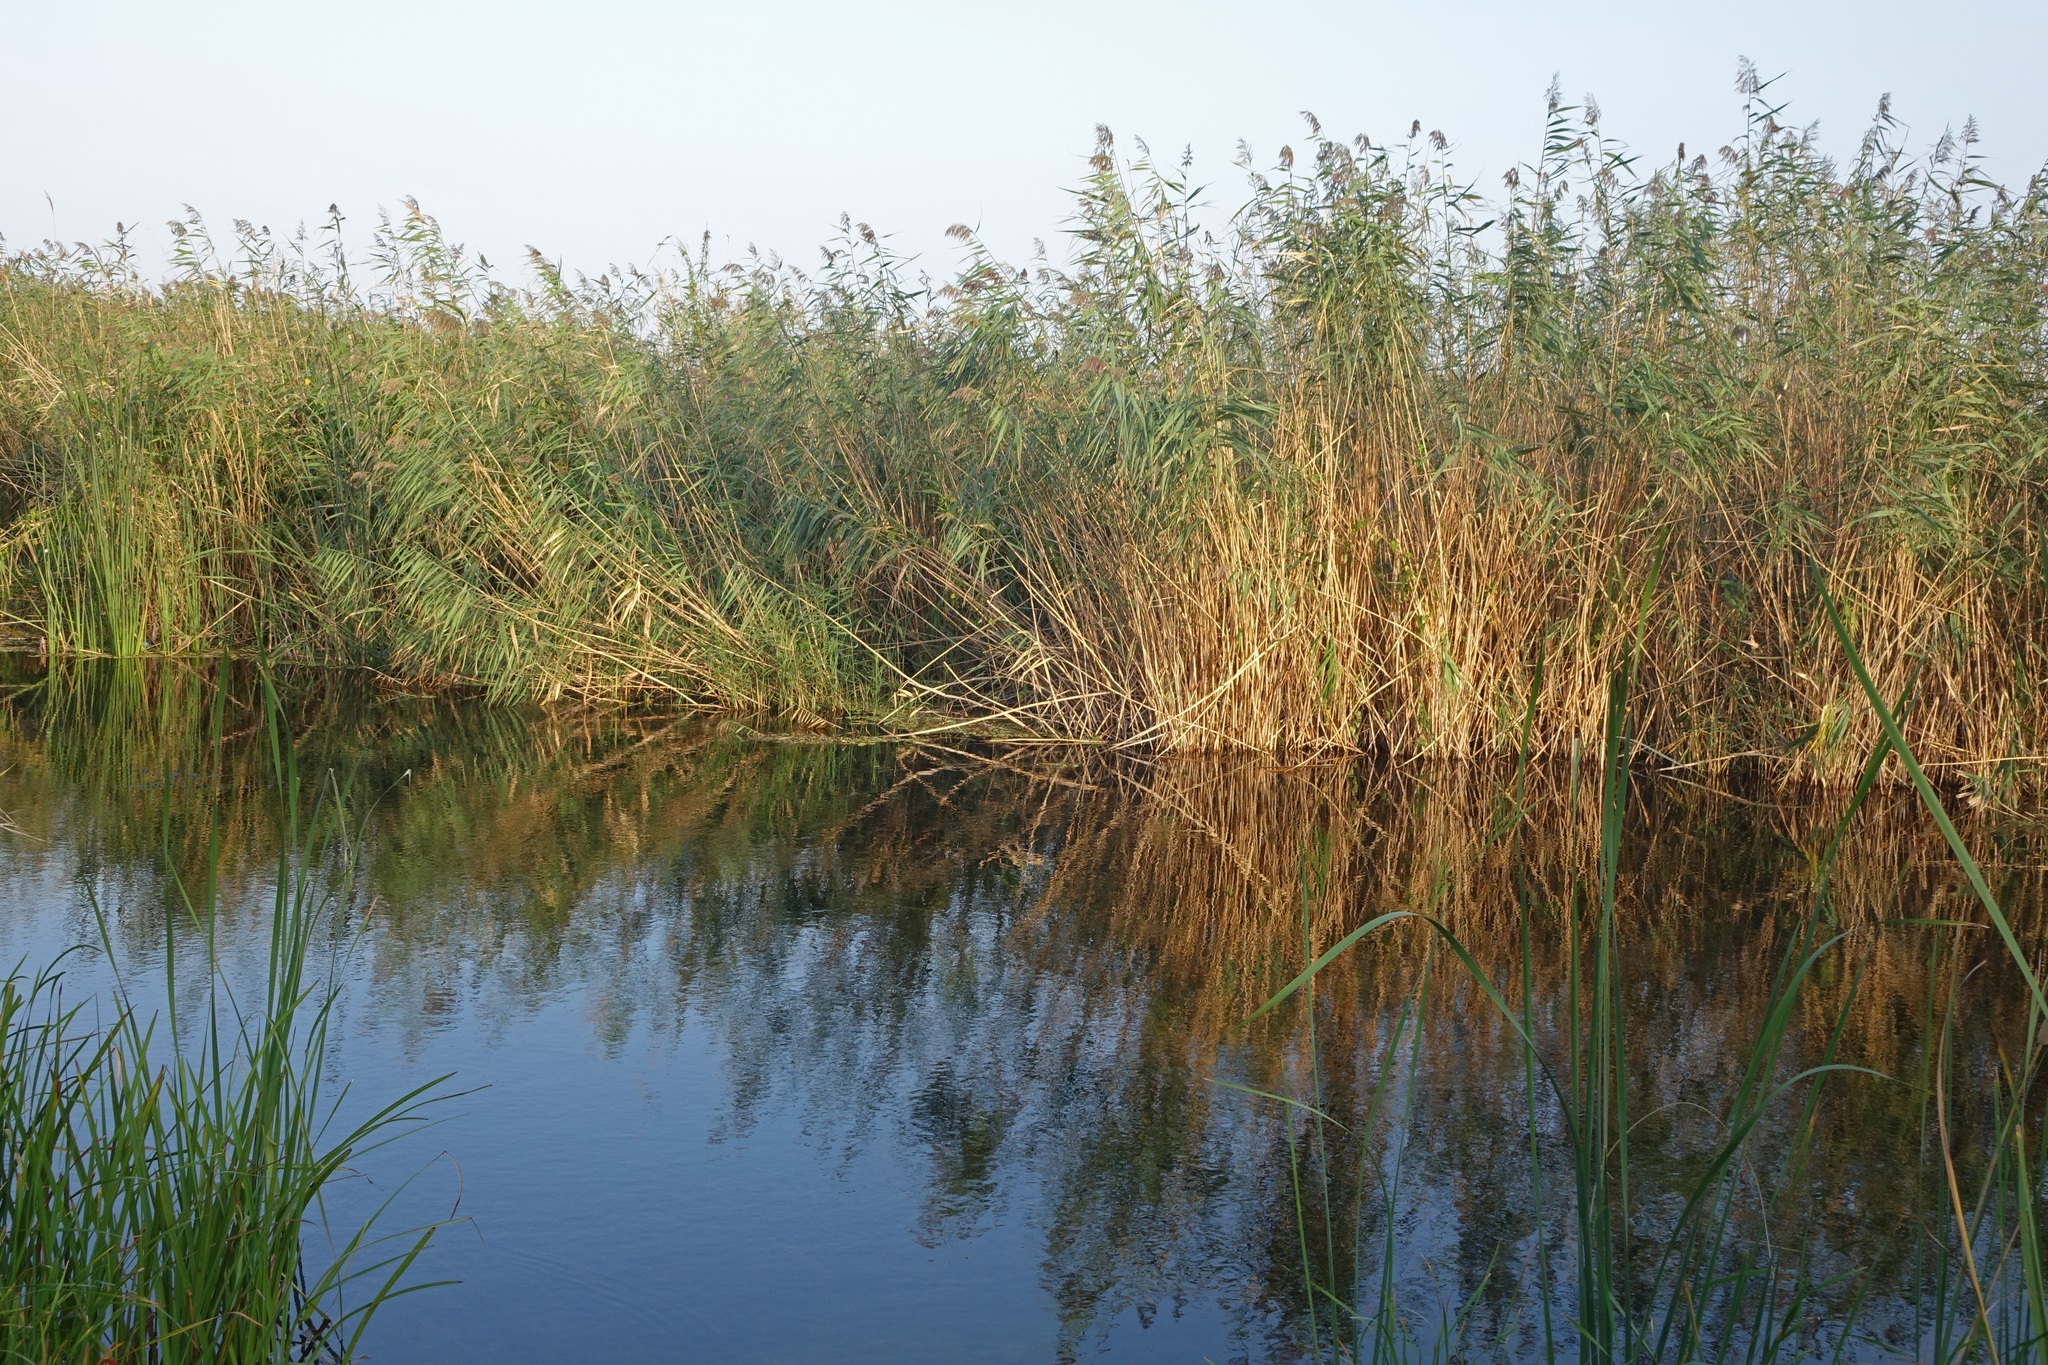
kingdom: Plantae
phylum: Tracheophyta
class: Liliopsida
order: Poales
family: Poaceae
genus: Phragmites
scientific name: Phragmites australis
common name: Common reed
